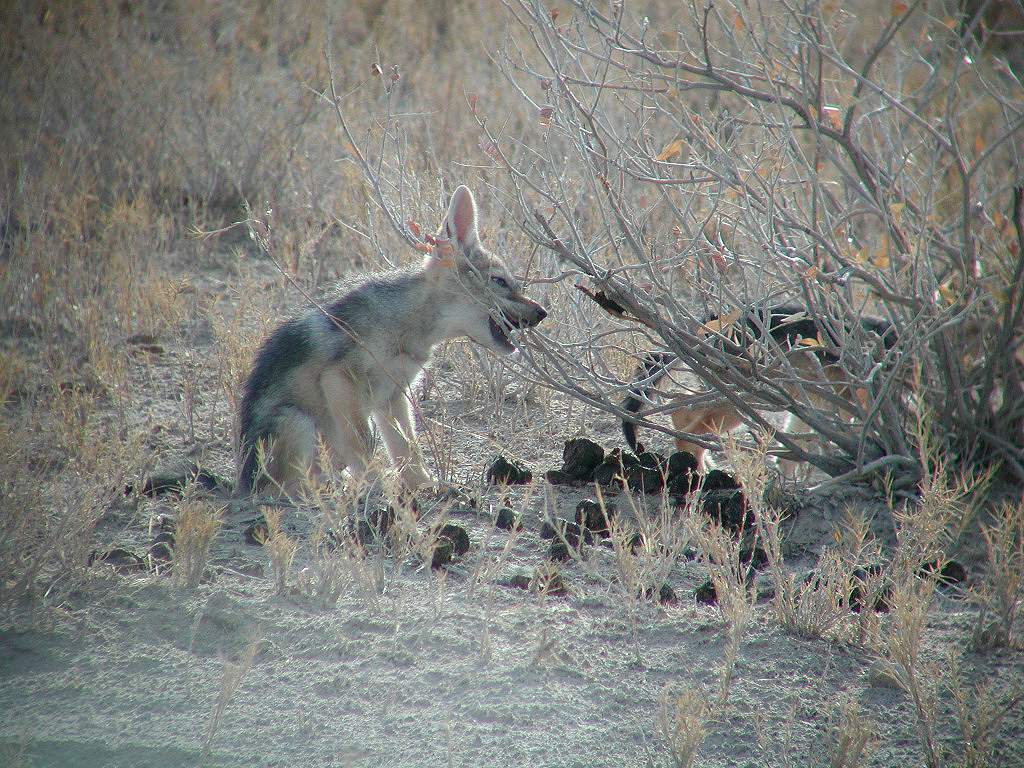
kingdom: Animalia
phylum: Chordata
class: Mammalia
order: Carnivora
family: Canidae
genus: Lupulella
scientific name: Lupulella
